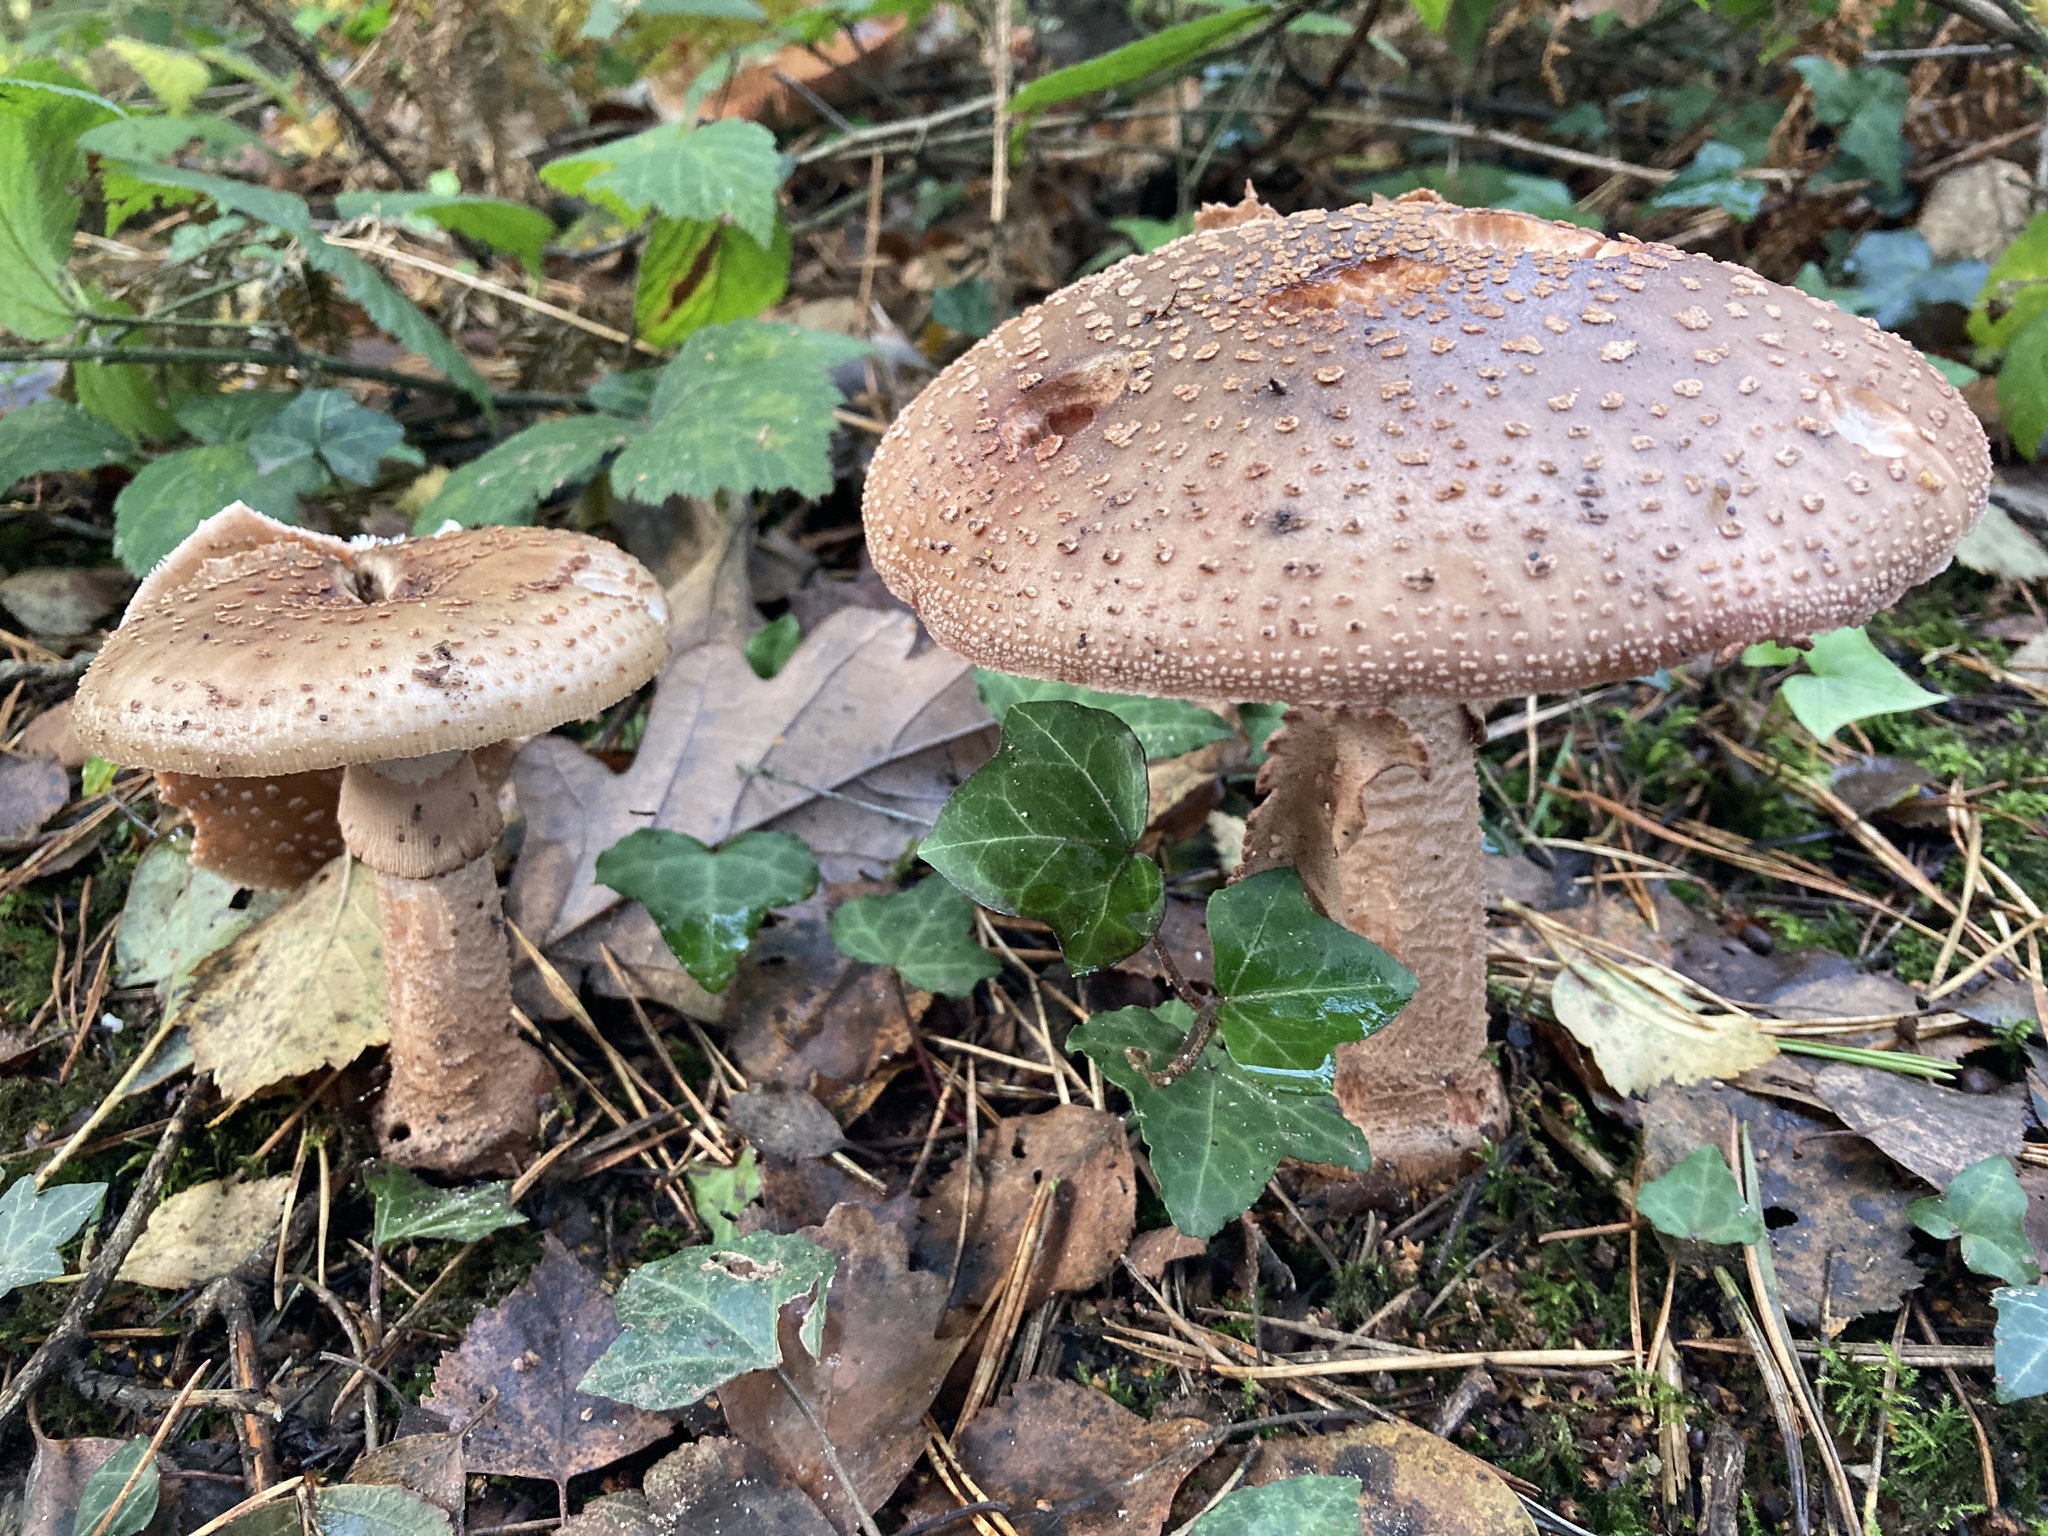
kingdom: Fungi
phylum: Basidiomycota
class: Agaricomycetes
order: Agaricales
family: Amanitaceae
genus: Amanita
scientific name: Amanita rubescens
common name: Blusher
